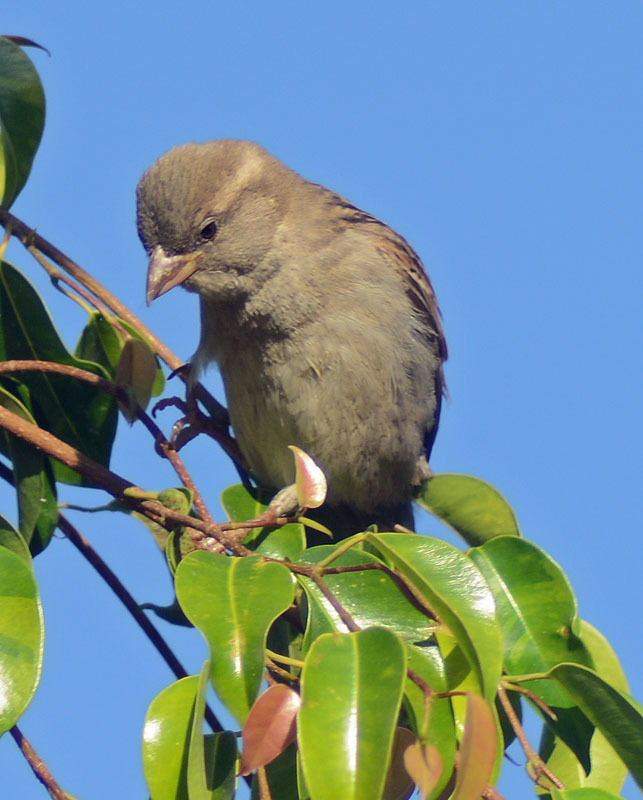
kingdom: Animalia
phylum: Chordata
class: Aves
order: Passeriformes
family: Passeridae
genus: Passer
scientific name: Passer domesticus
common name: House sparrow
